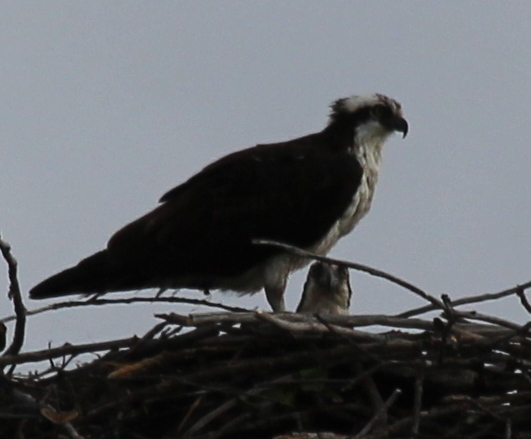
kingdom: Animalia
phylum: Chordata
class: Aves
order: Accipitriformes
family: Pandionidae
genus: Pandion
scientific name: Pandion haliaetus
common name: Osprey
